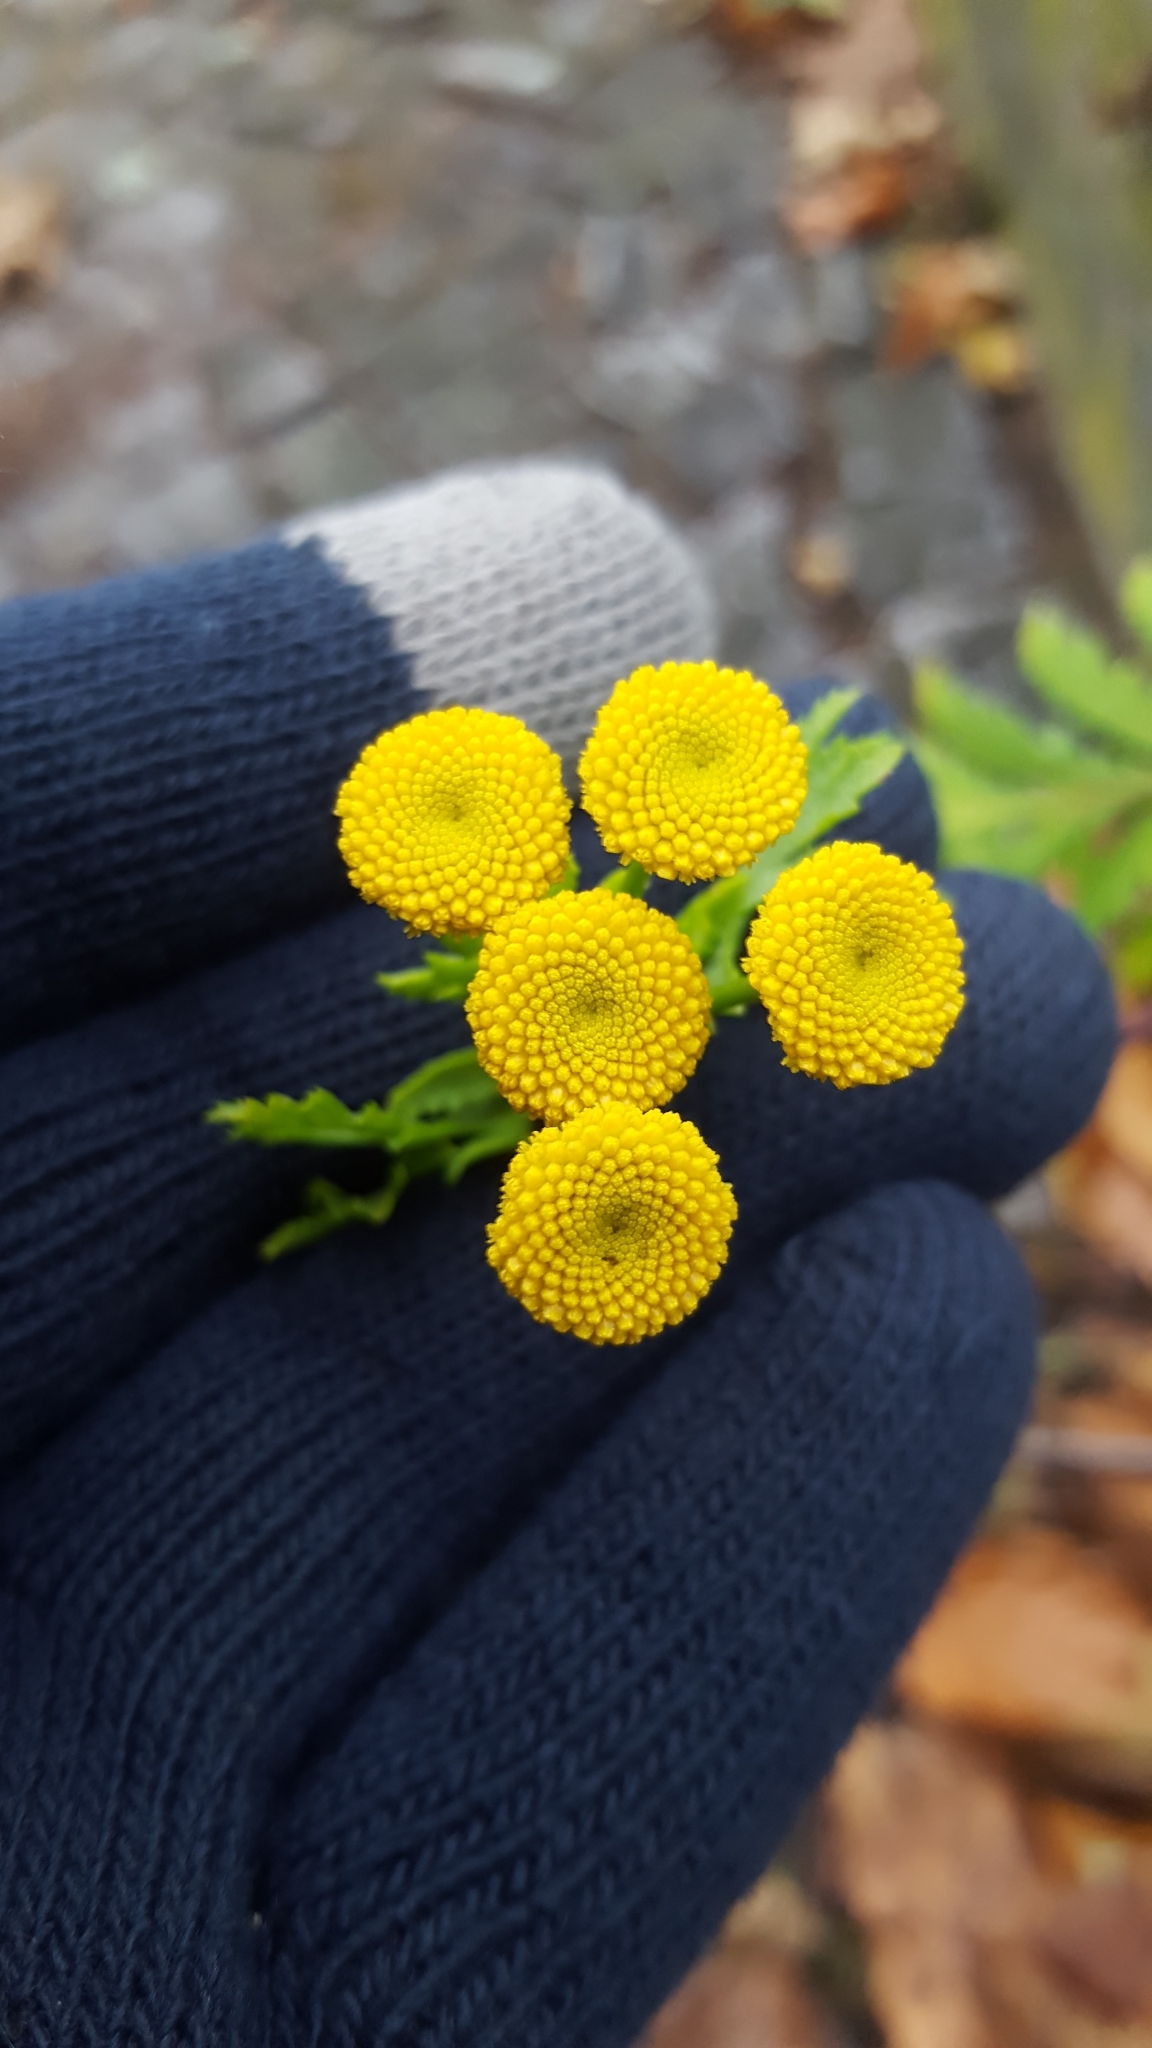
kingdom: Plantae
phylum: Tracheophyta
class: Magnoliopsida
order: Asterales
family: Asteraceae
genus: Tanacetum
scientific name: Tanacetum vulgare
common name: Common tansy
